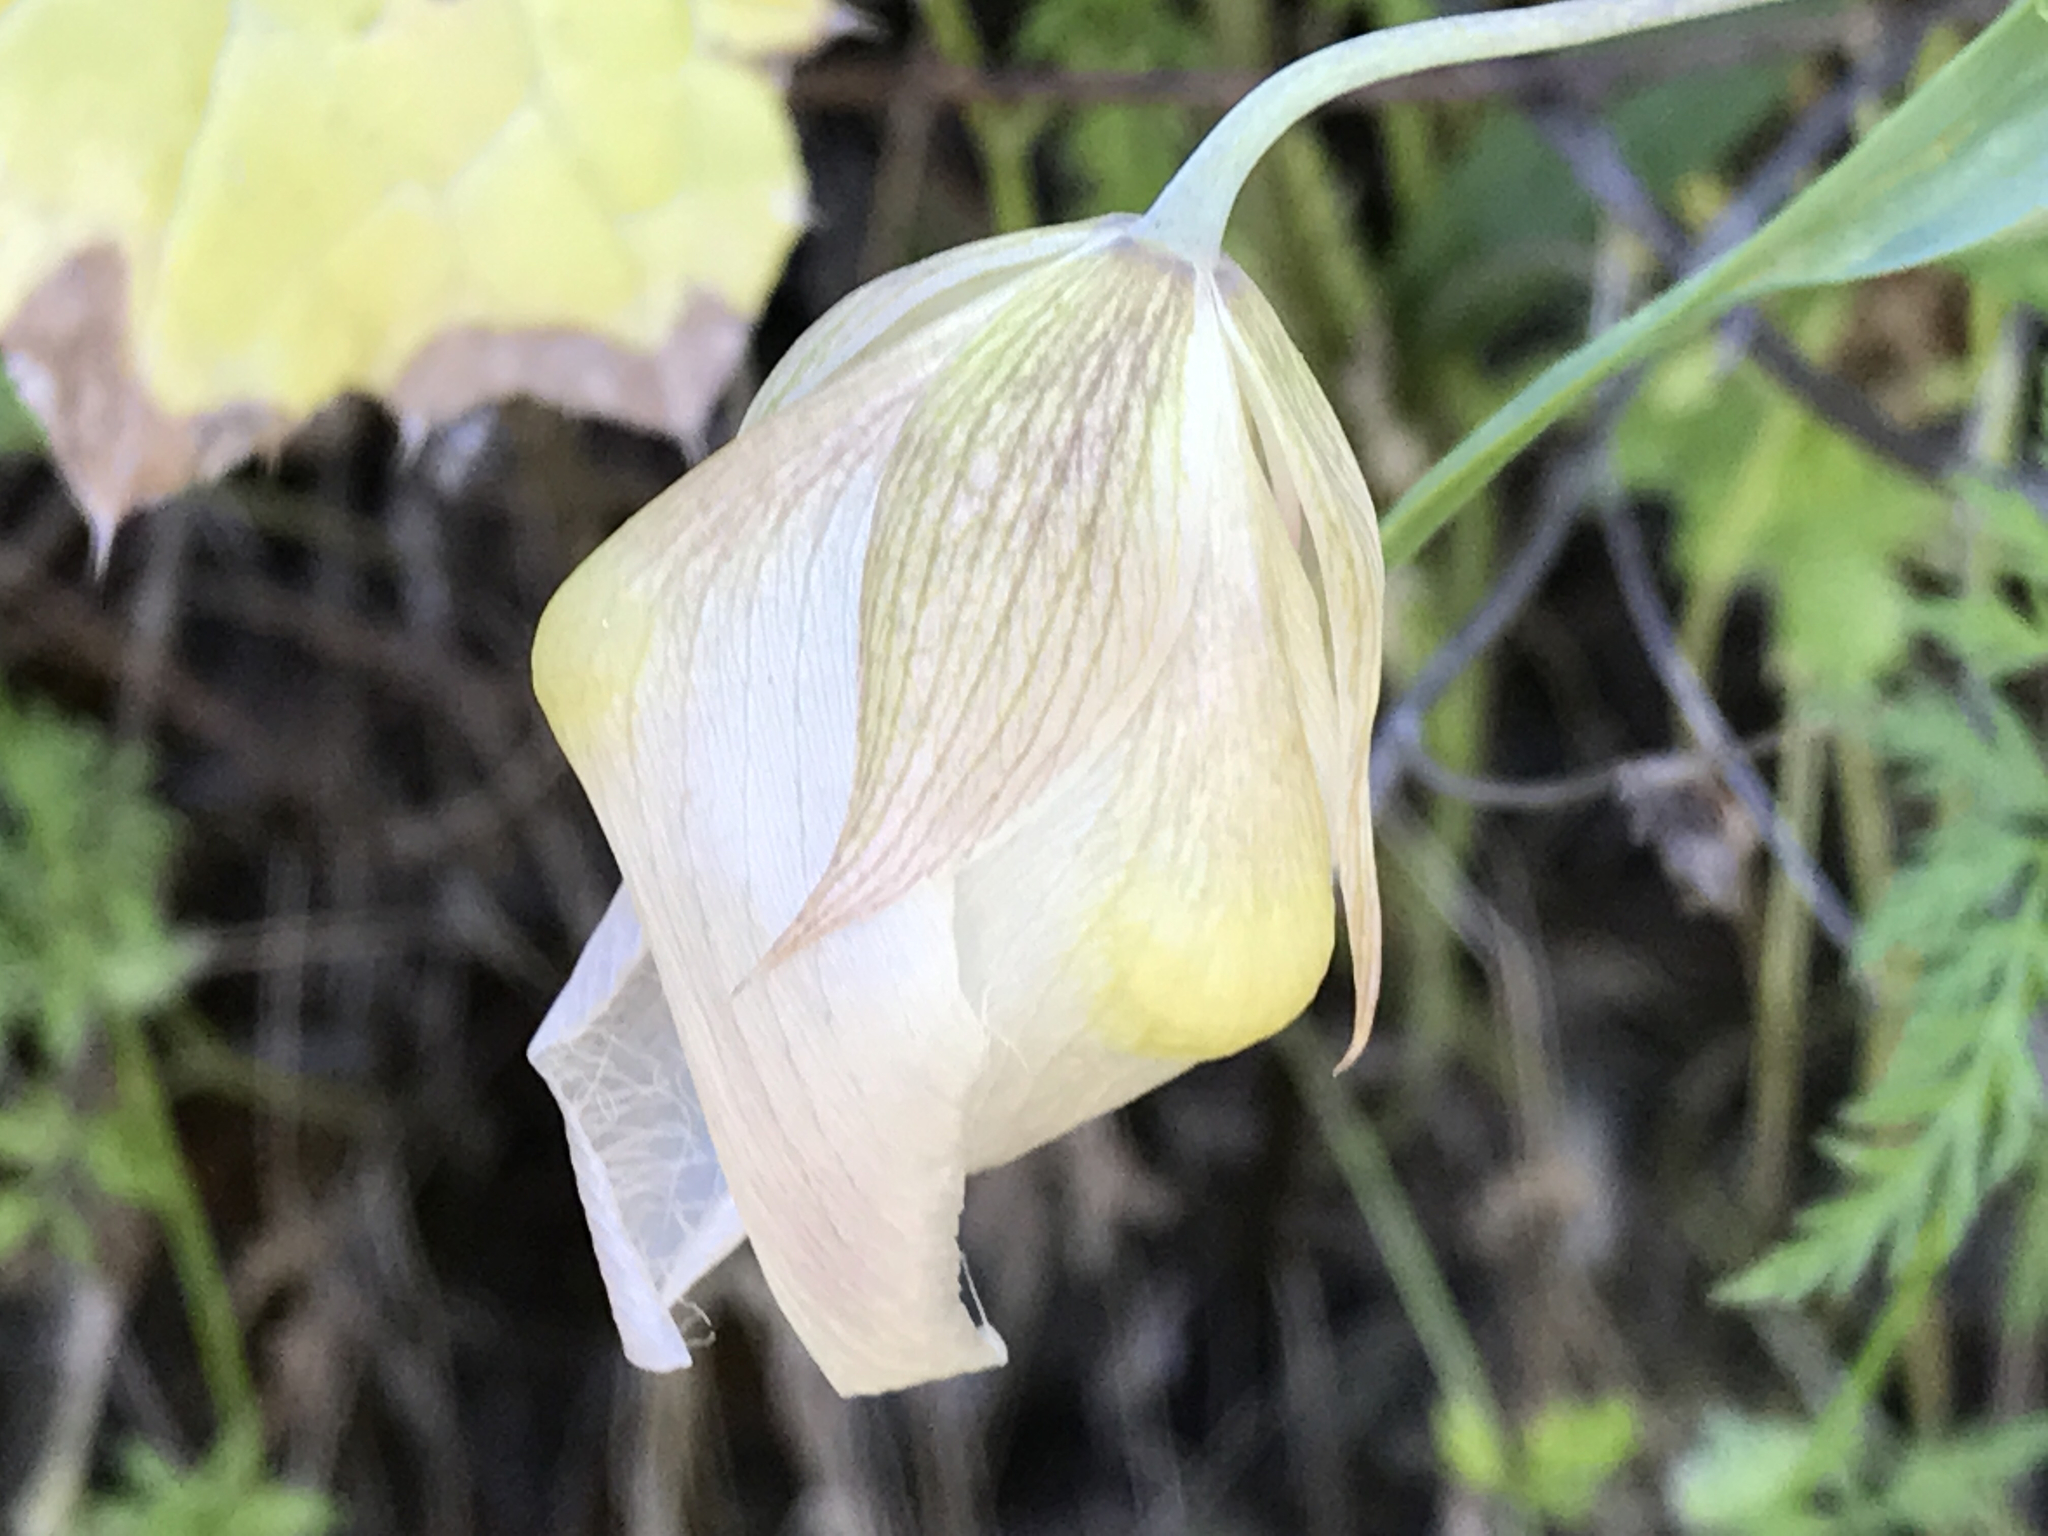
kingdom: Plantae
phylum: Tracheophyta
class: Liliopsida
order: Liliales
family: Liliaceae
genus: Calochortus
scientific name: Calochortus albus
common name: Fairy-lantern
